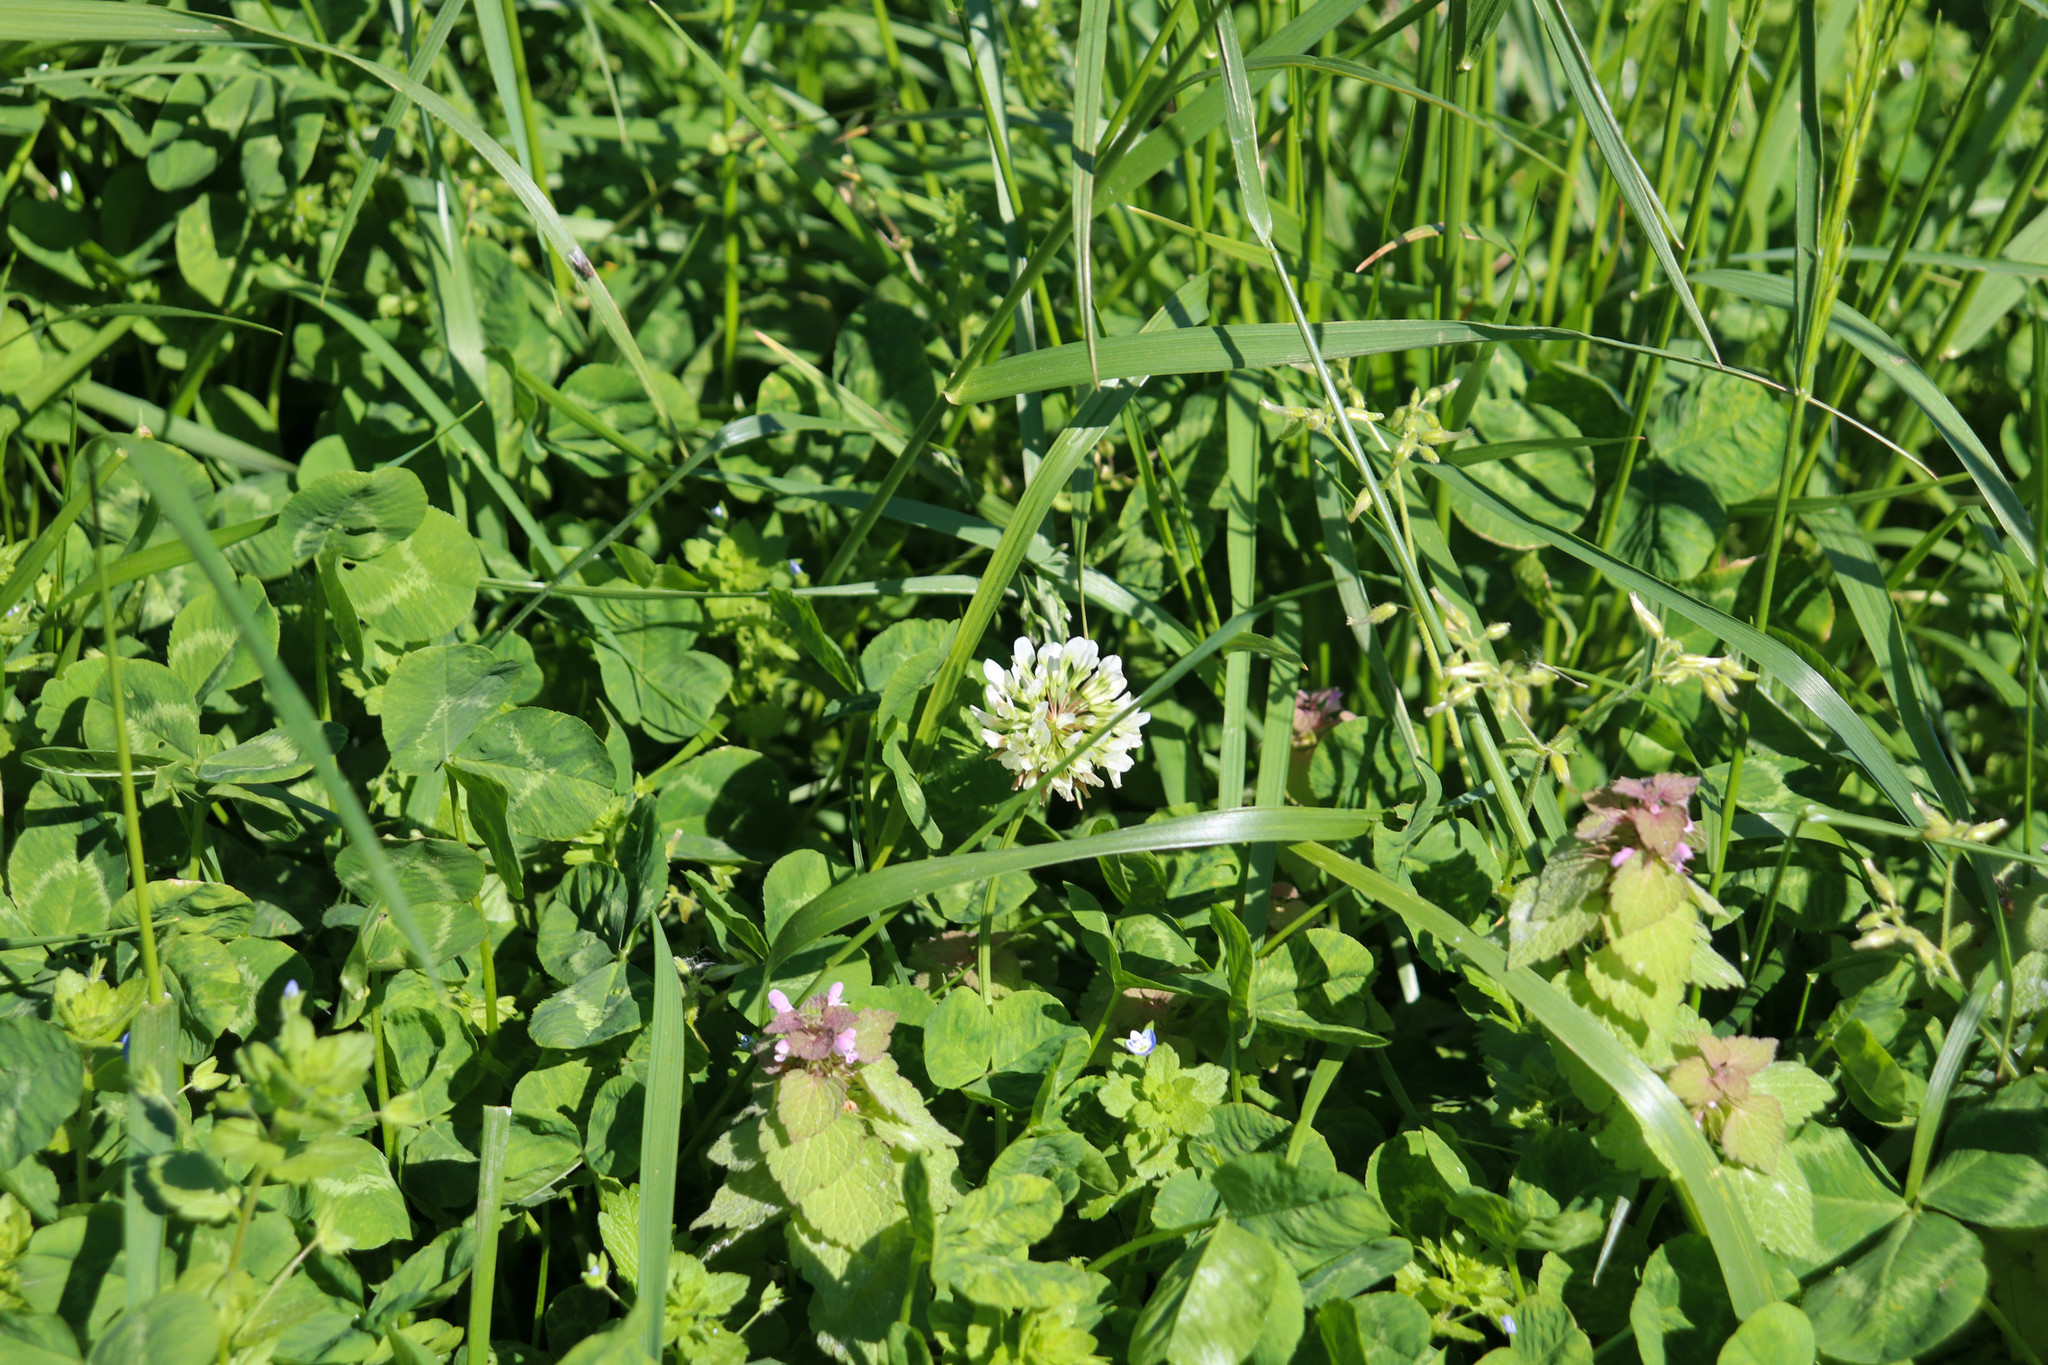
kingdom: Plantae
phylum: Tracheophyta
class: Magnoliopsida
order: Fabales
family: Fabaceae
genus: Trifolium
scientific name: Trifolium repens
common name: White clover
